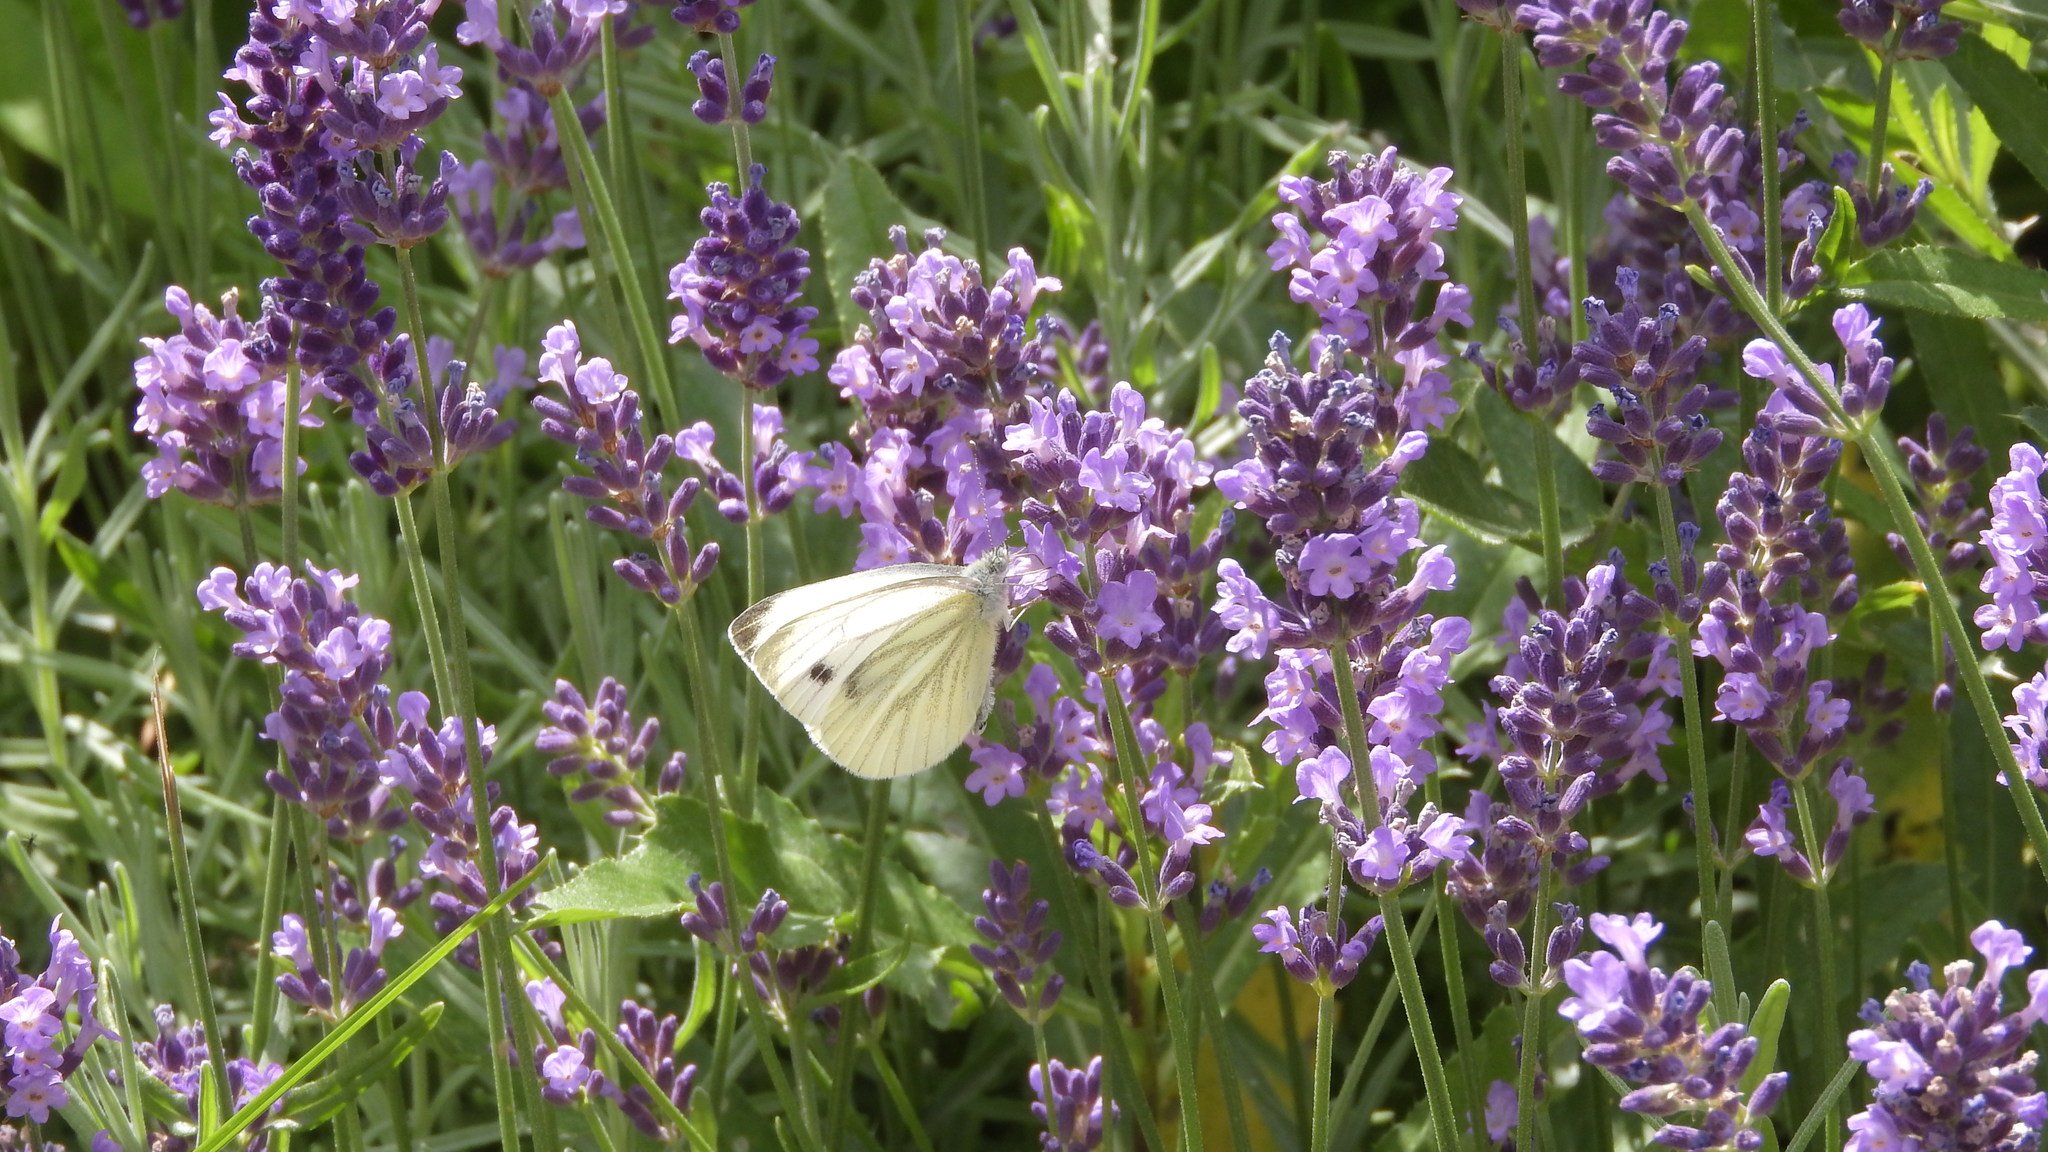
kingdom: Animalia
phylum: Arthropoda
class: Insecta
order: Lepidoptera
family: Pieridae
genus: Pieris
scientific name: Pieris napi
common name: Green-veined white
